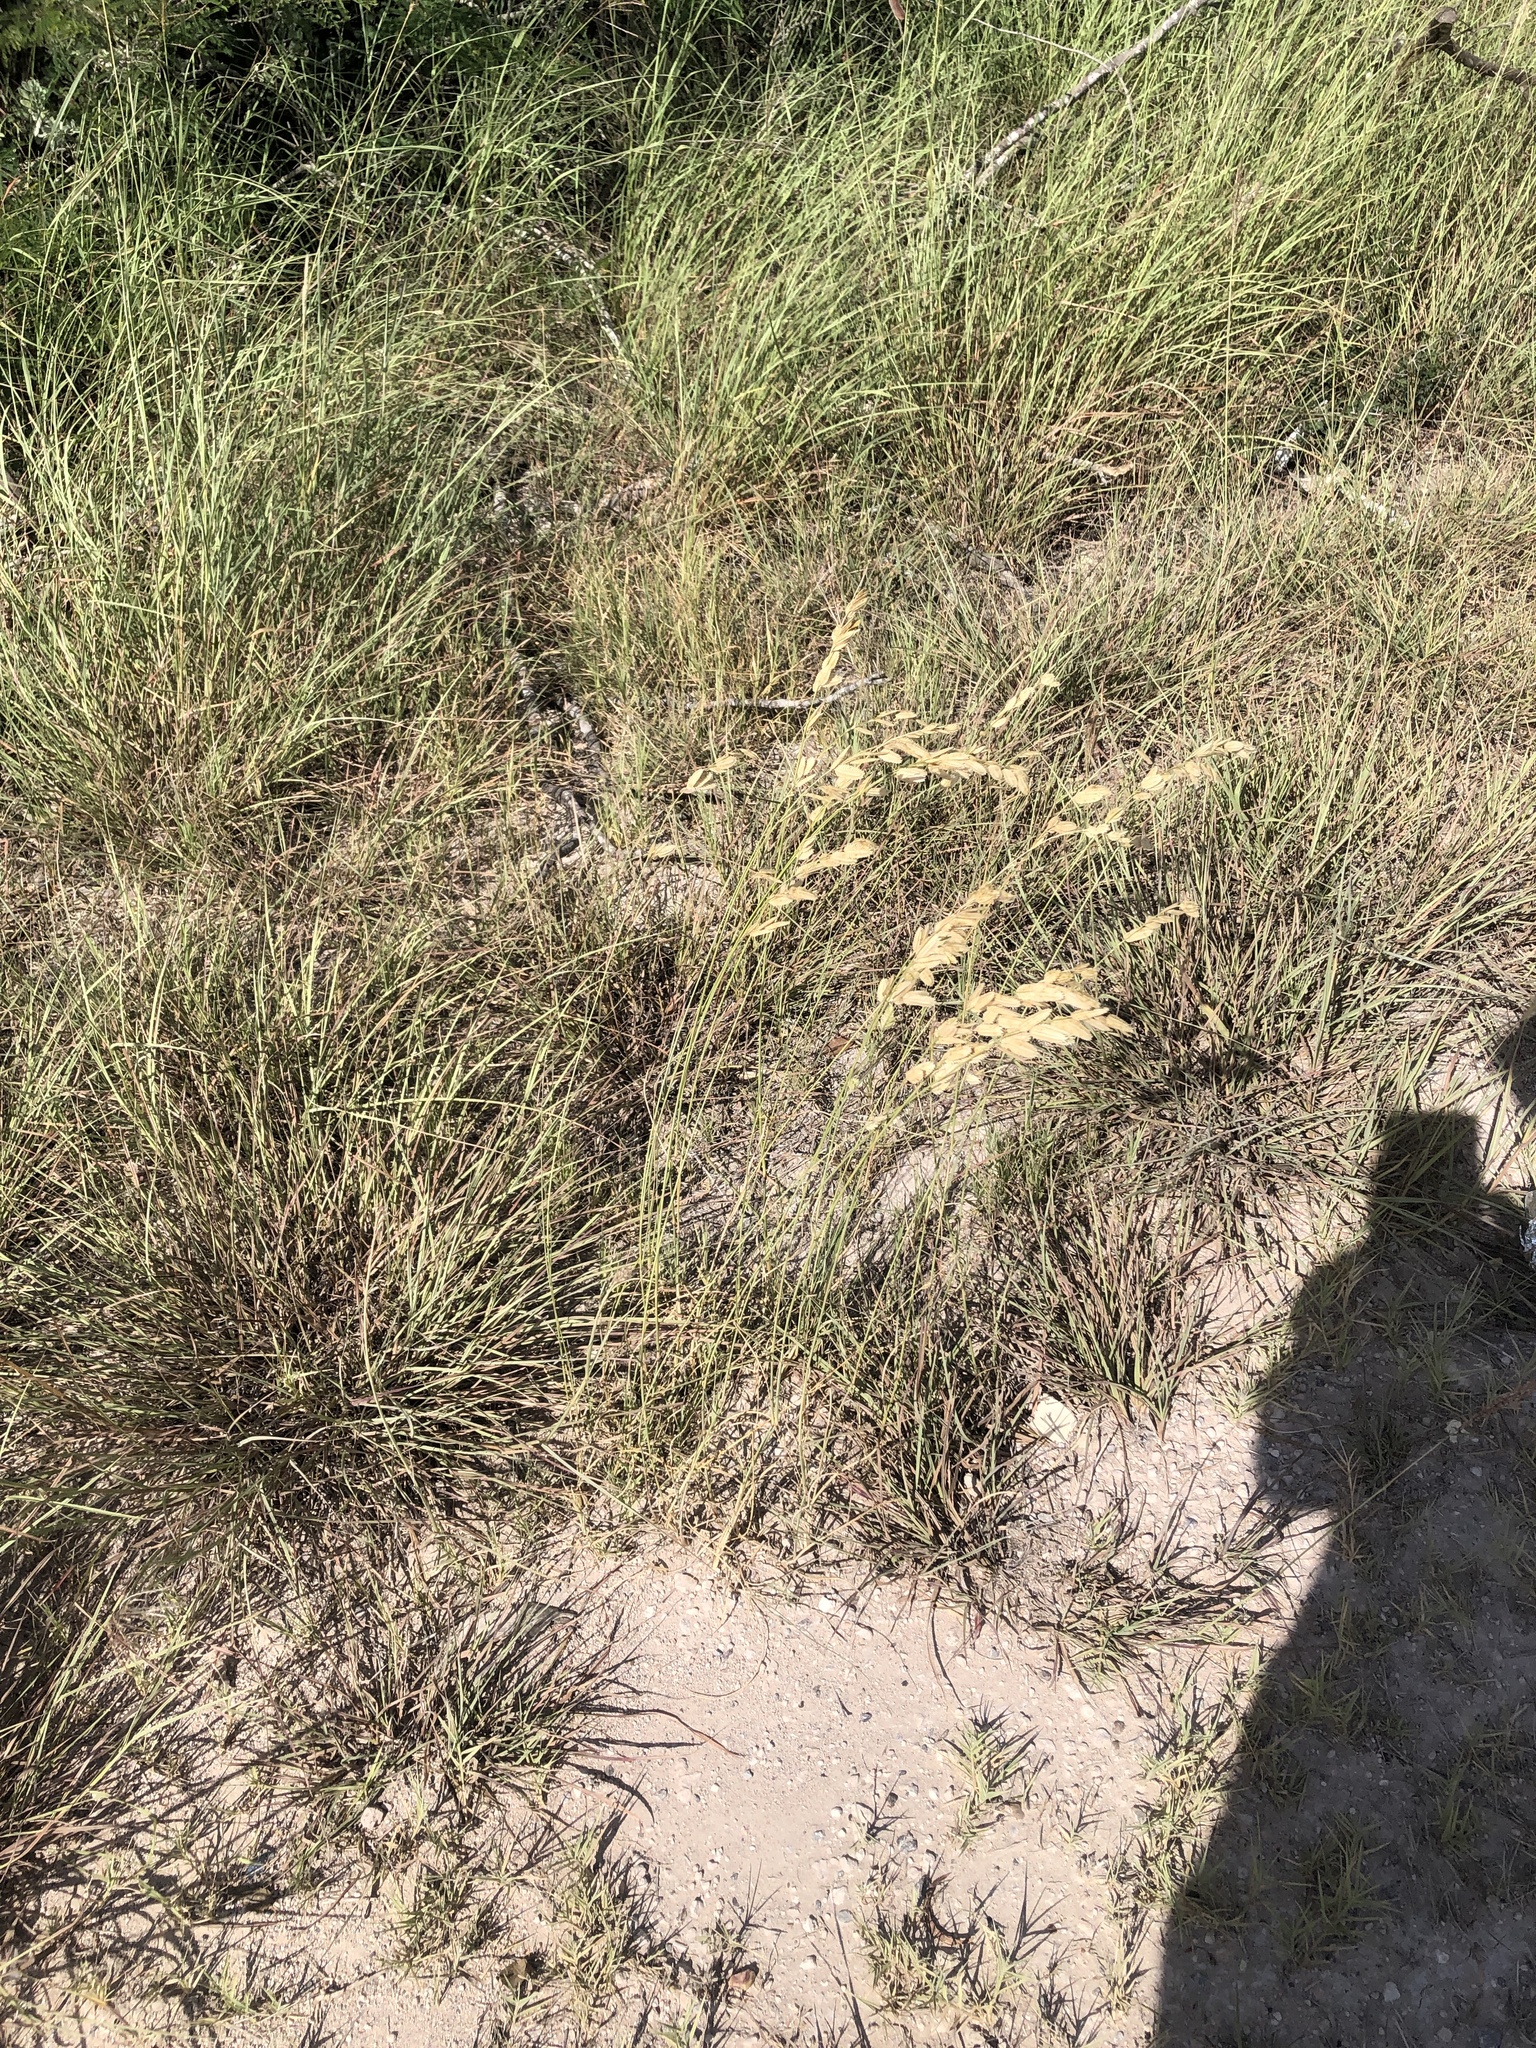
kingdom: Plantae
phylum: Tracheophyta
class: Liliopsida
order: Poales
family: Poaceae
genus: Eragrostis
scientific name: Eragrostis superba
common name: Wilman lovegrass
